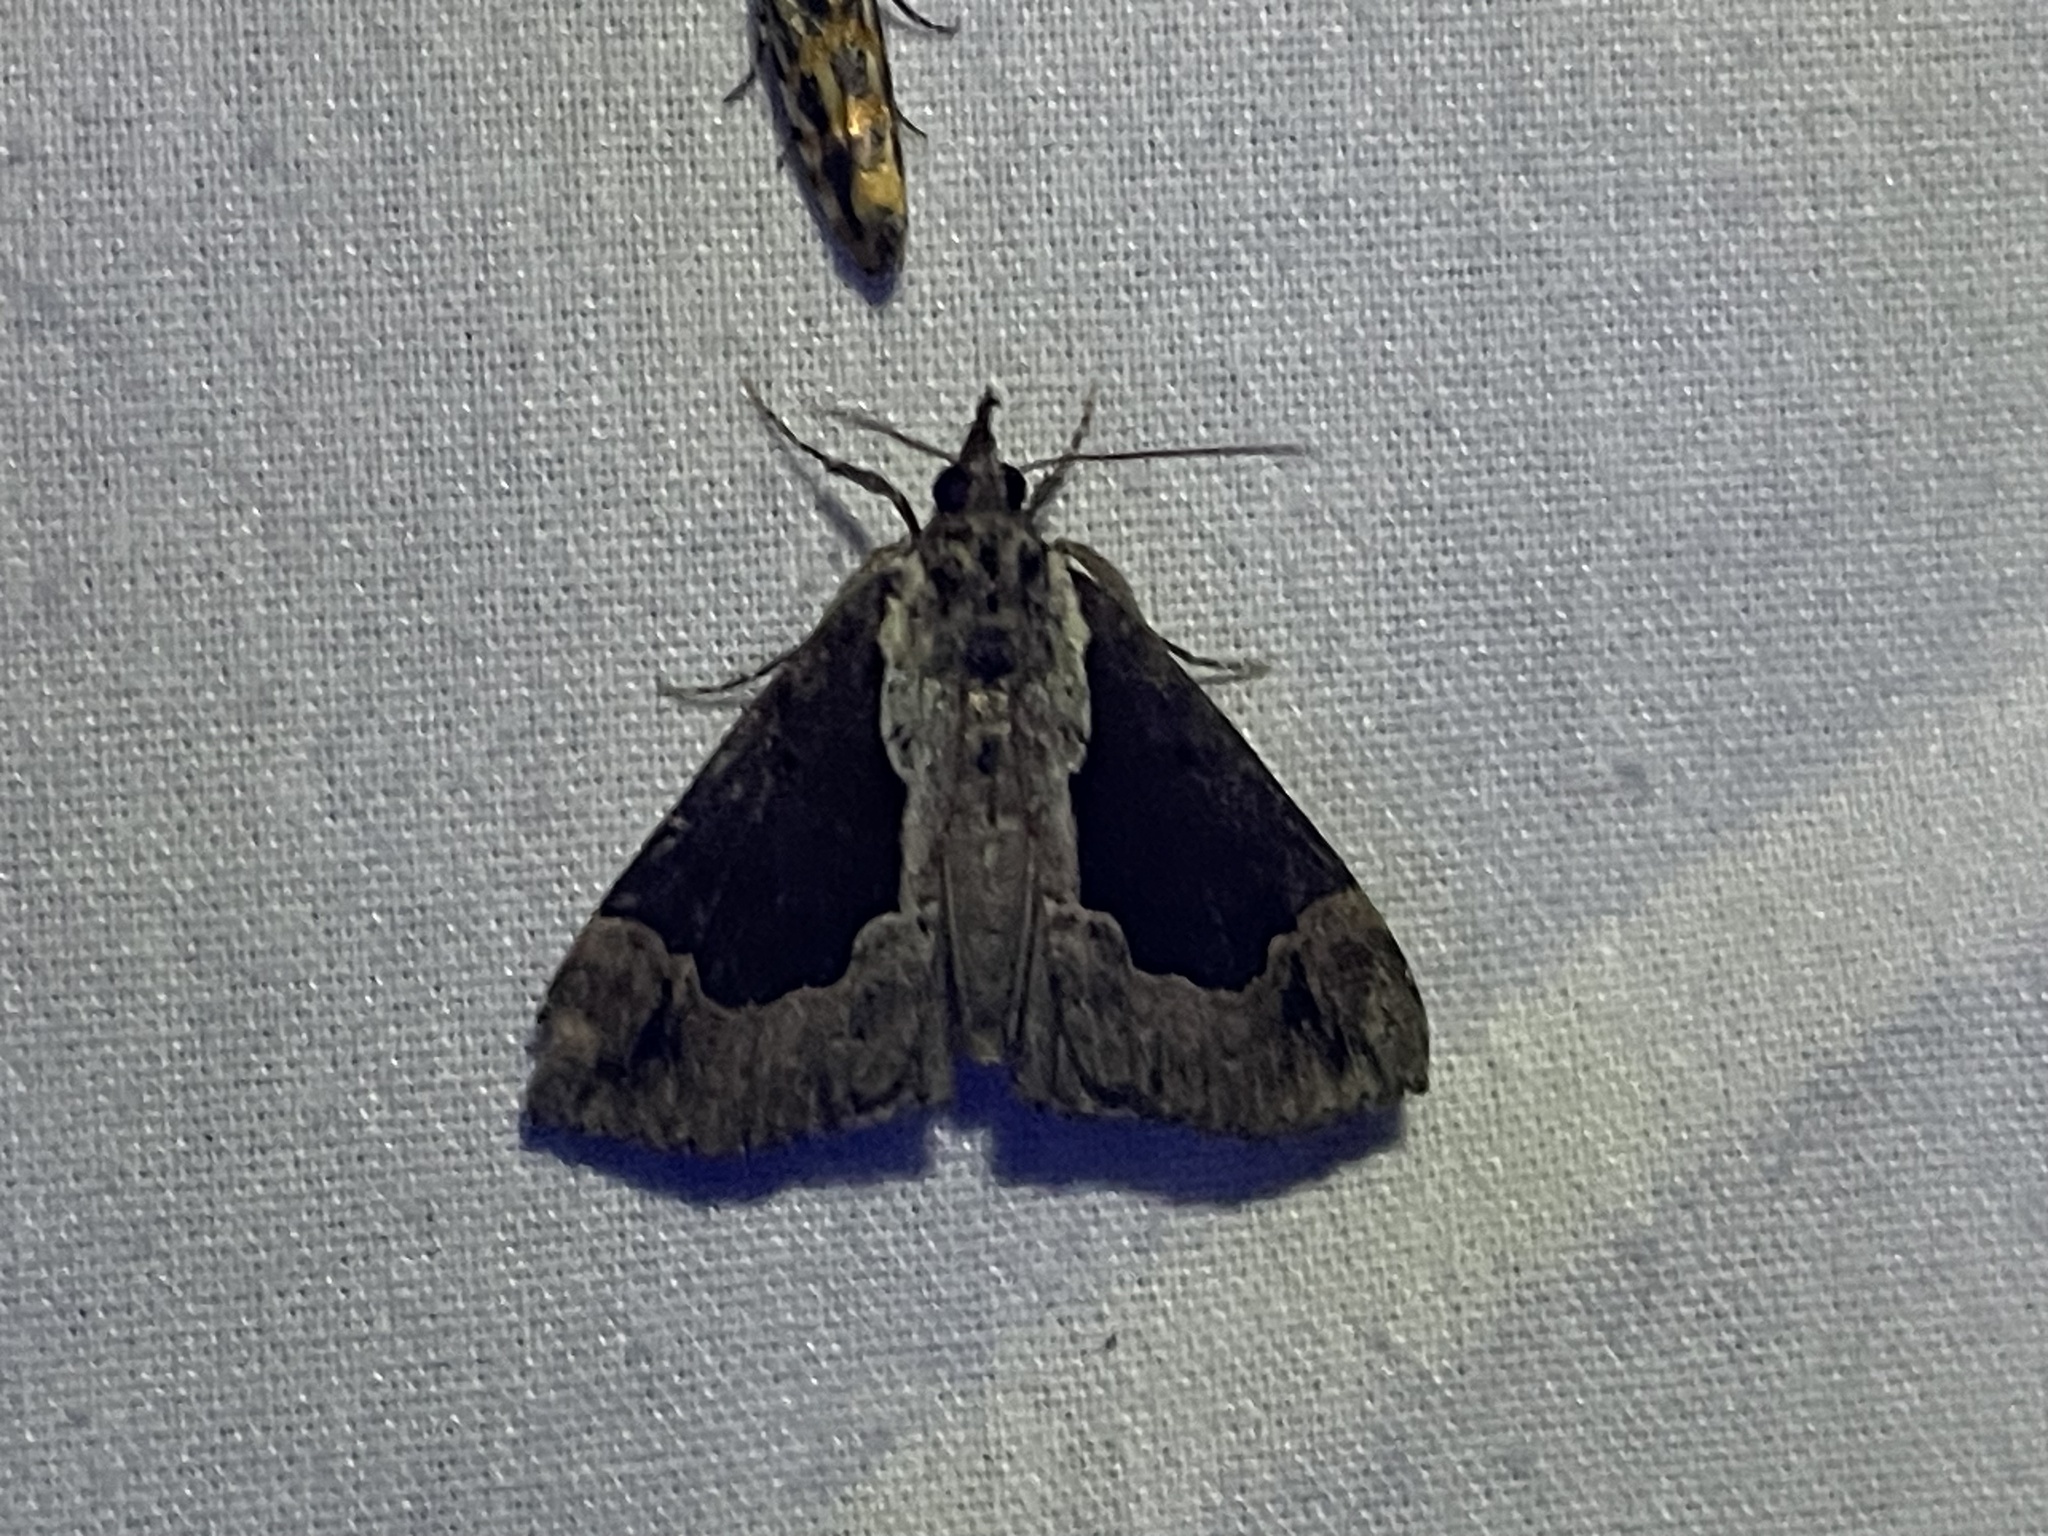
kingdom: Animalia
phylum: Arthropoda
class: Insecta
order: Lepidoptera
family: Erebidae
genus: Hypena
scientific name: Hypena baltimoralis
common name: Baltimore snout
